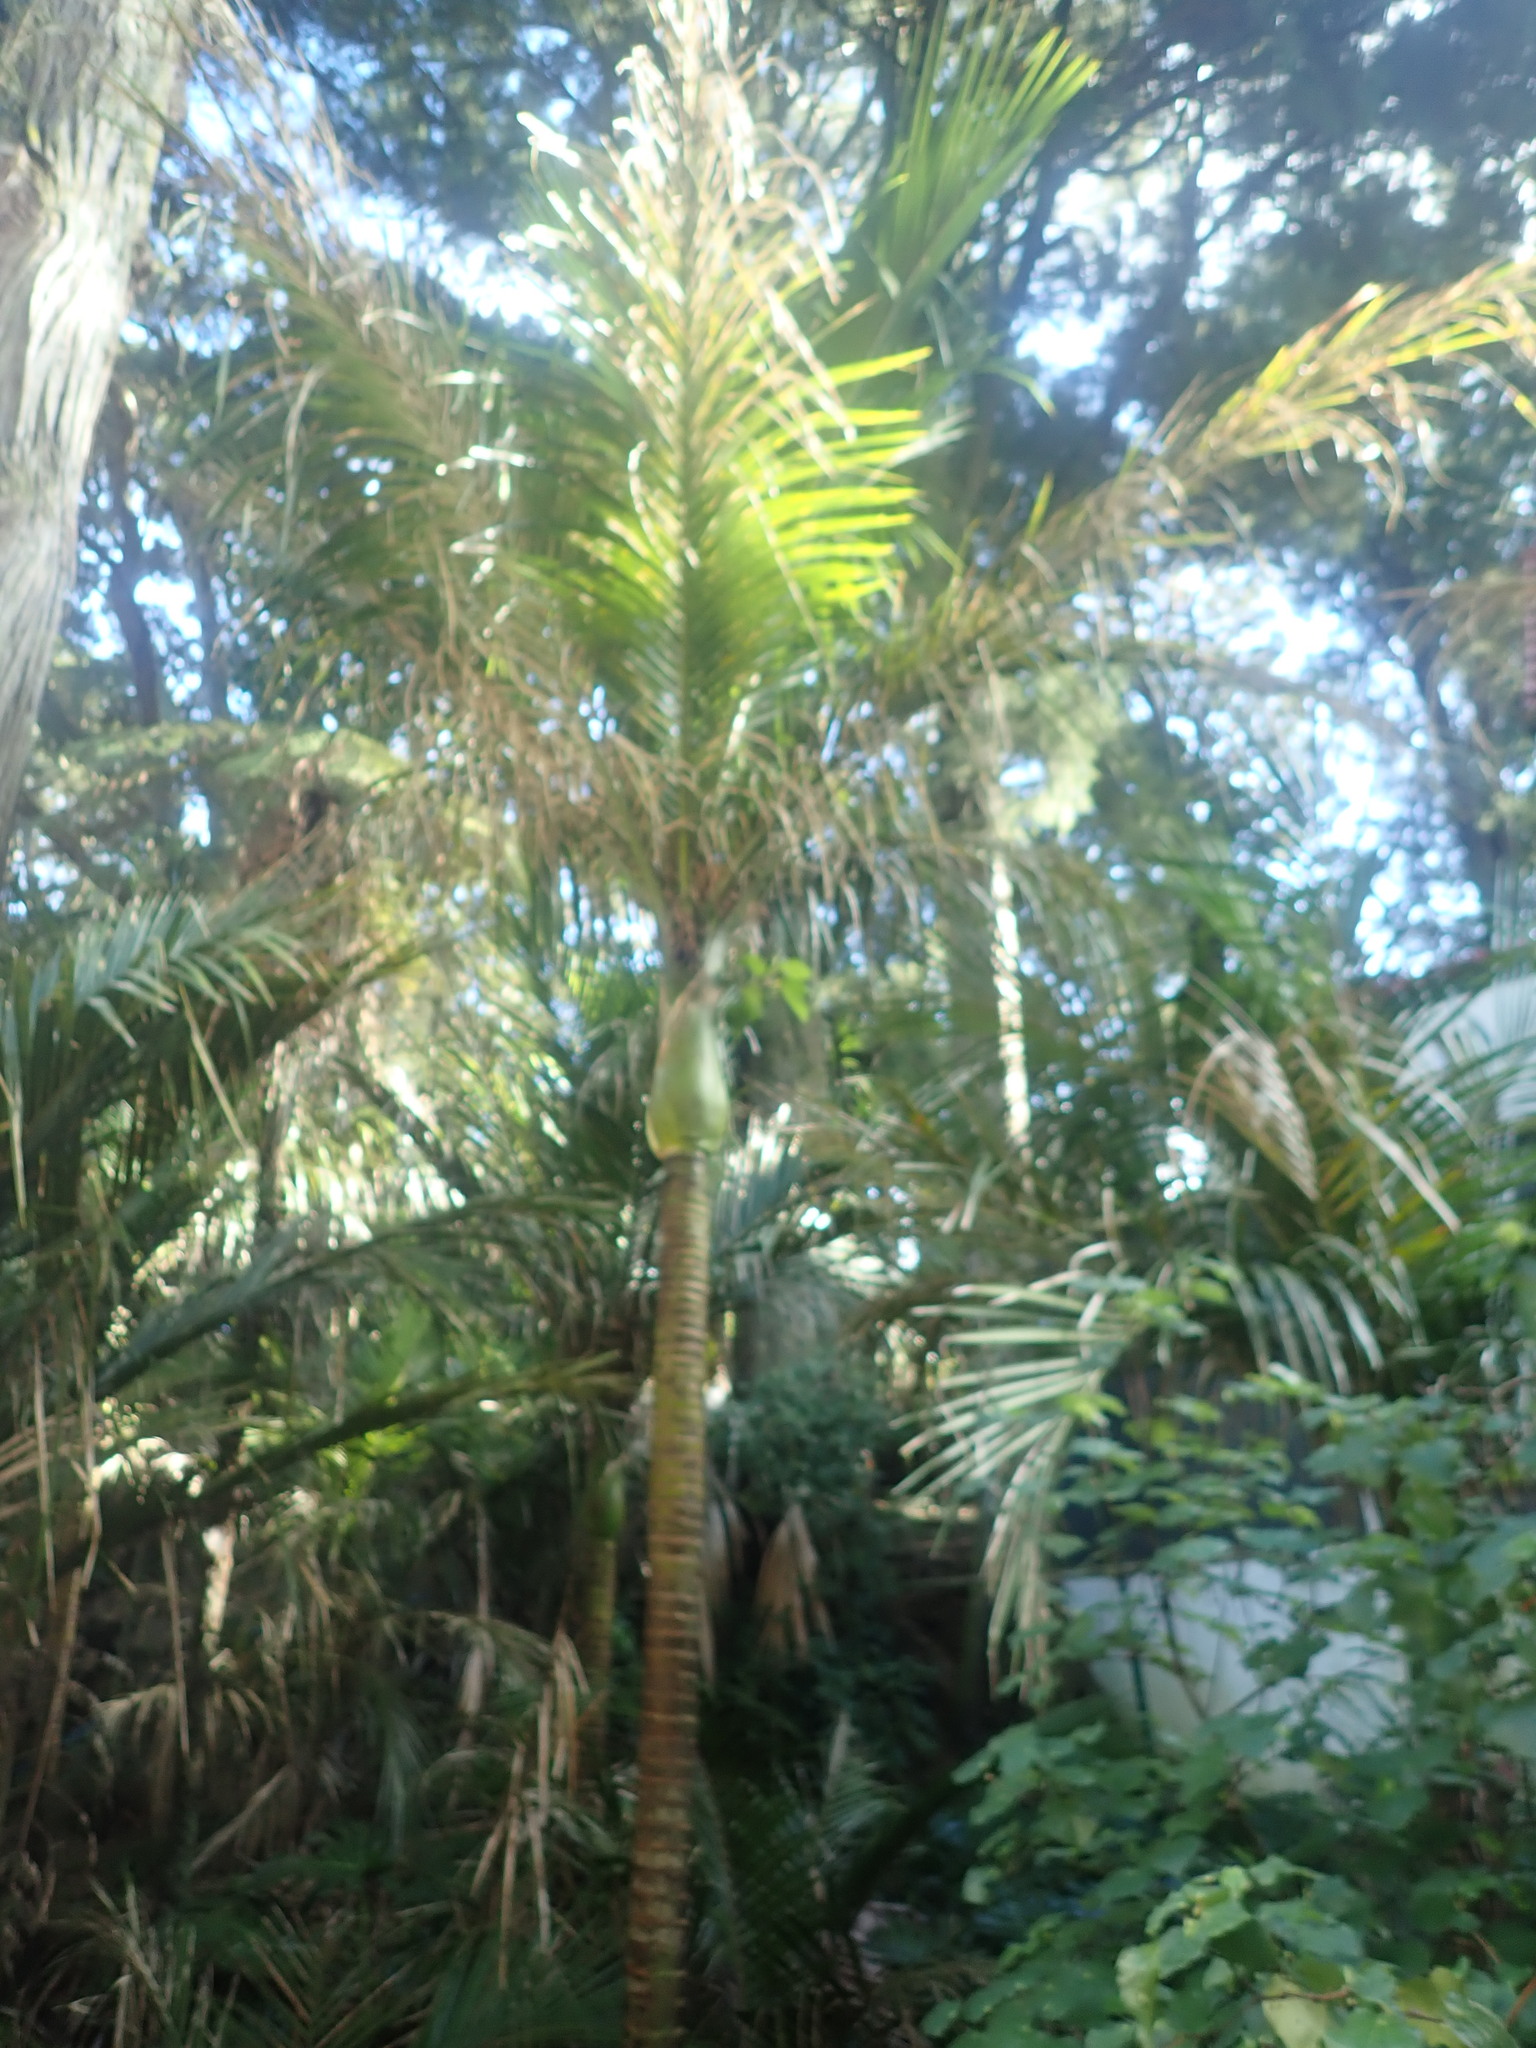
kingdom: Plantae
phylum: Tracheophyta
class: Magnoliopsida
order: Rosales
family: Moraceae
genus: Ficus
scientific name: Ficus macrophylla
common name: Moreton bay fig
